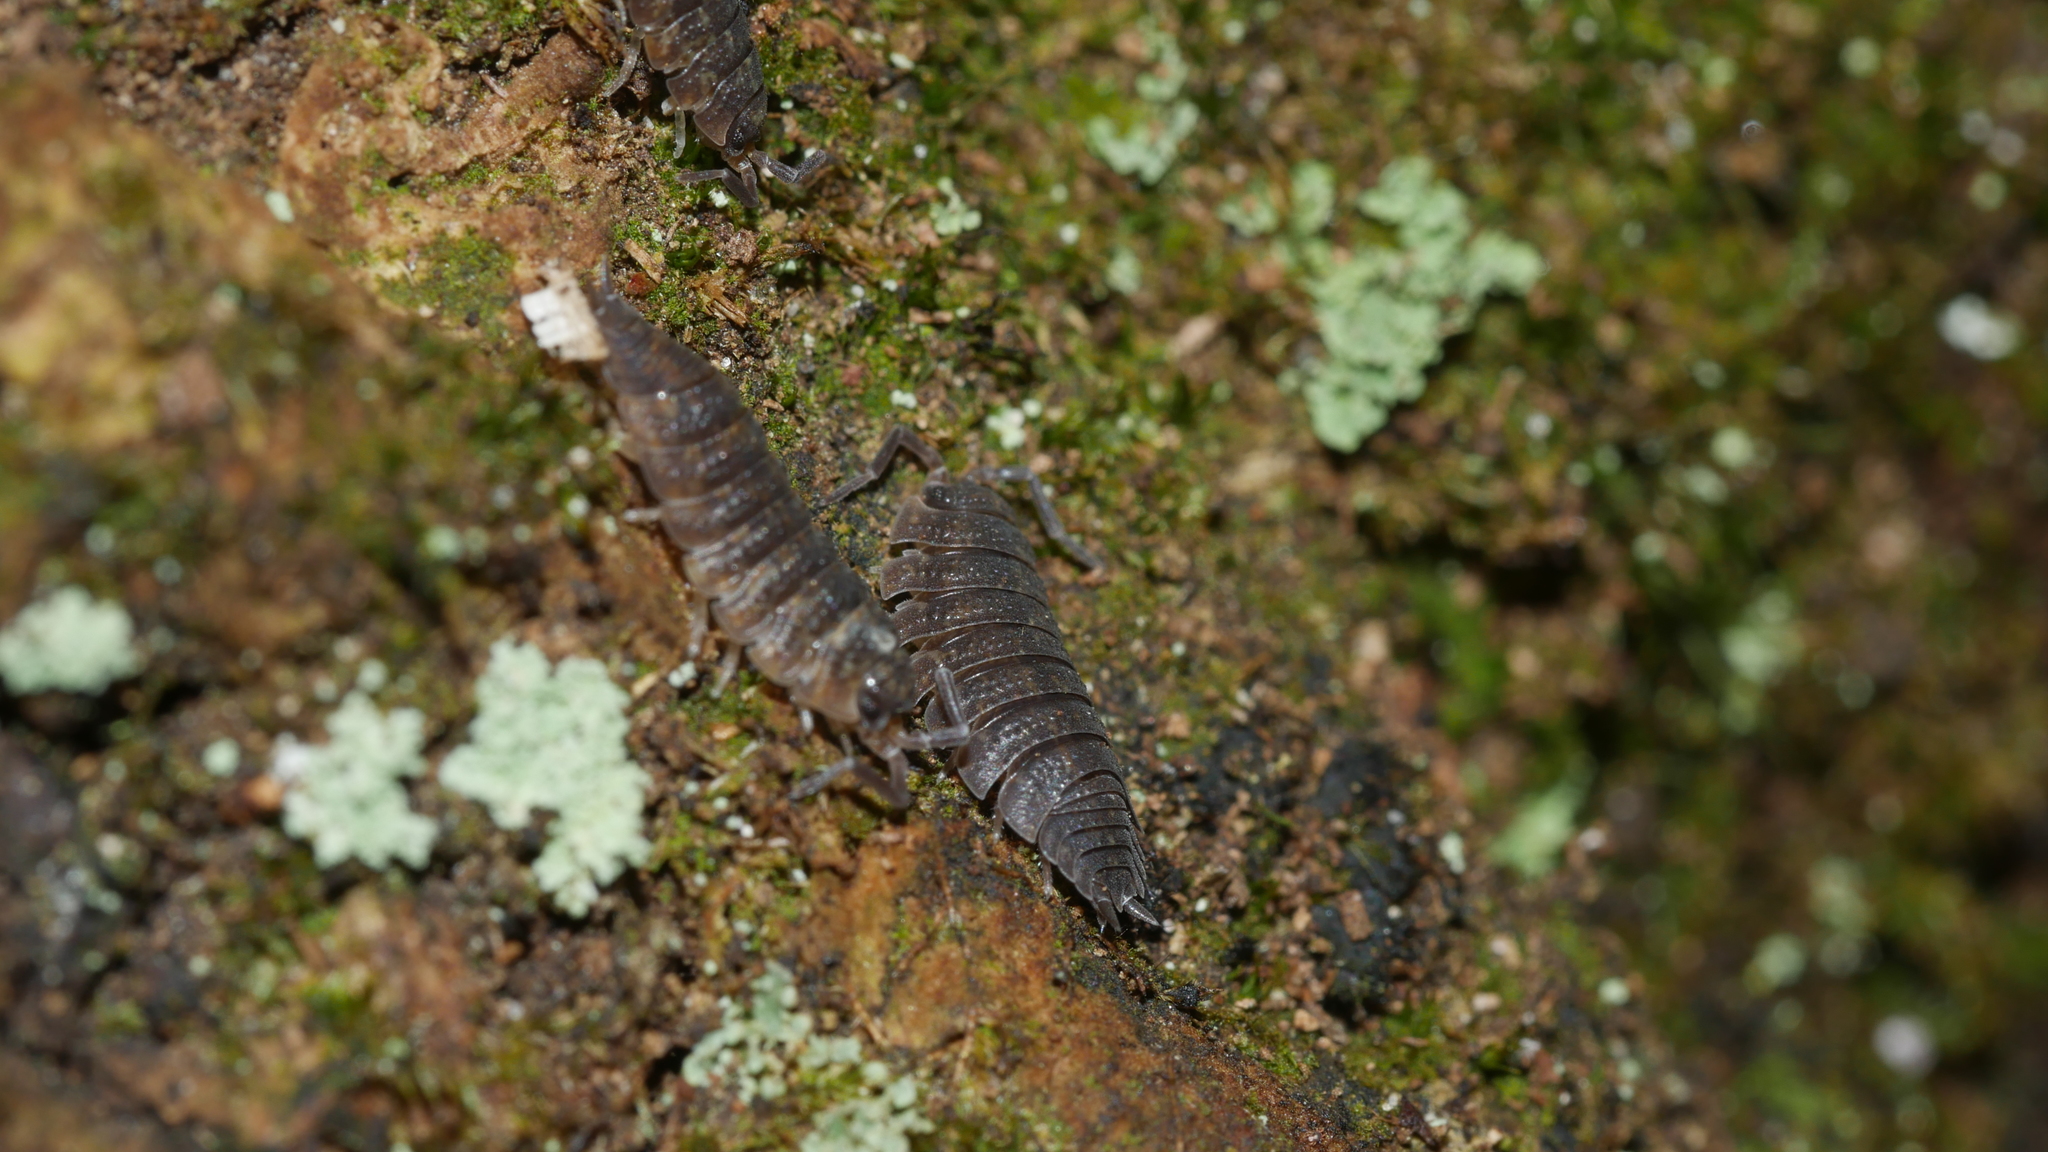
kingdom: Animalia
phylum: Arthropoda
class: Malacostraca
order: Isopoda
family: Porcellionidae
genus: Porcellio
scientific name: Porcellio scaber
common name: Common rough woodlouse
